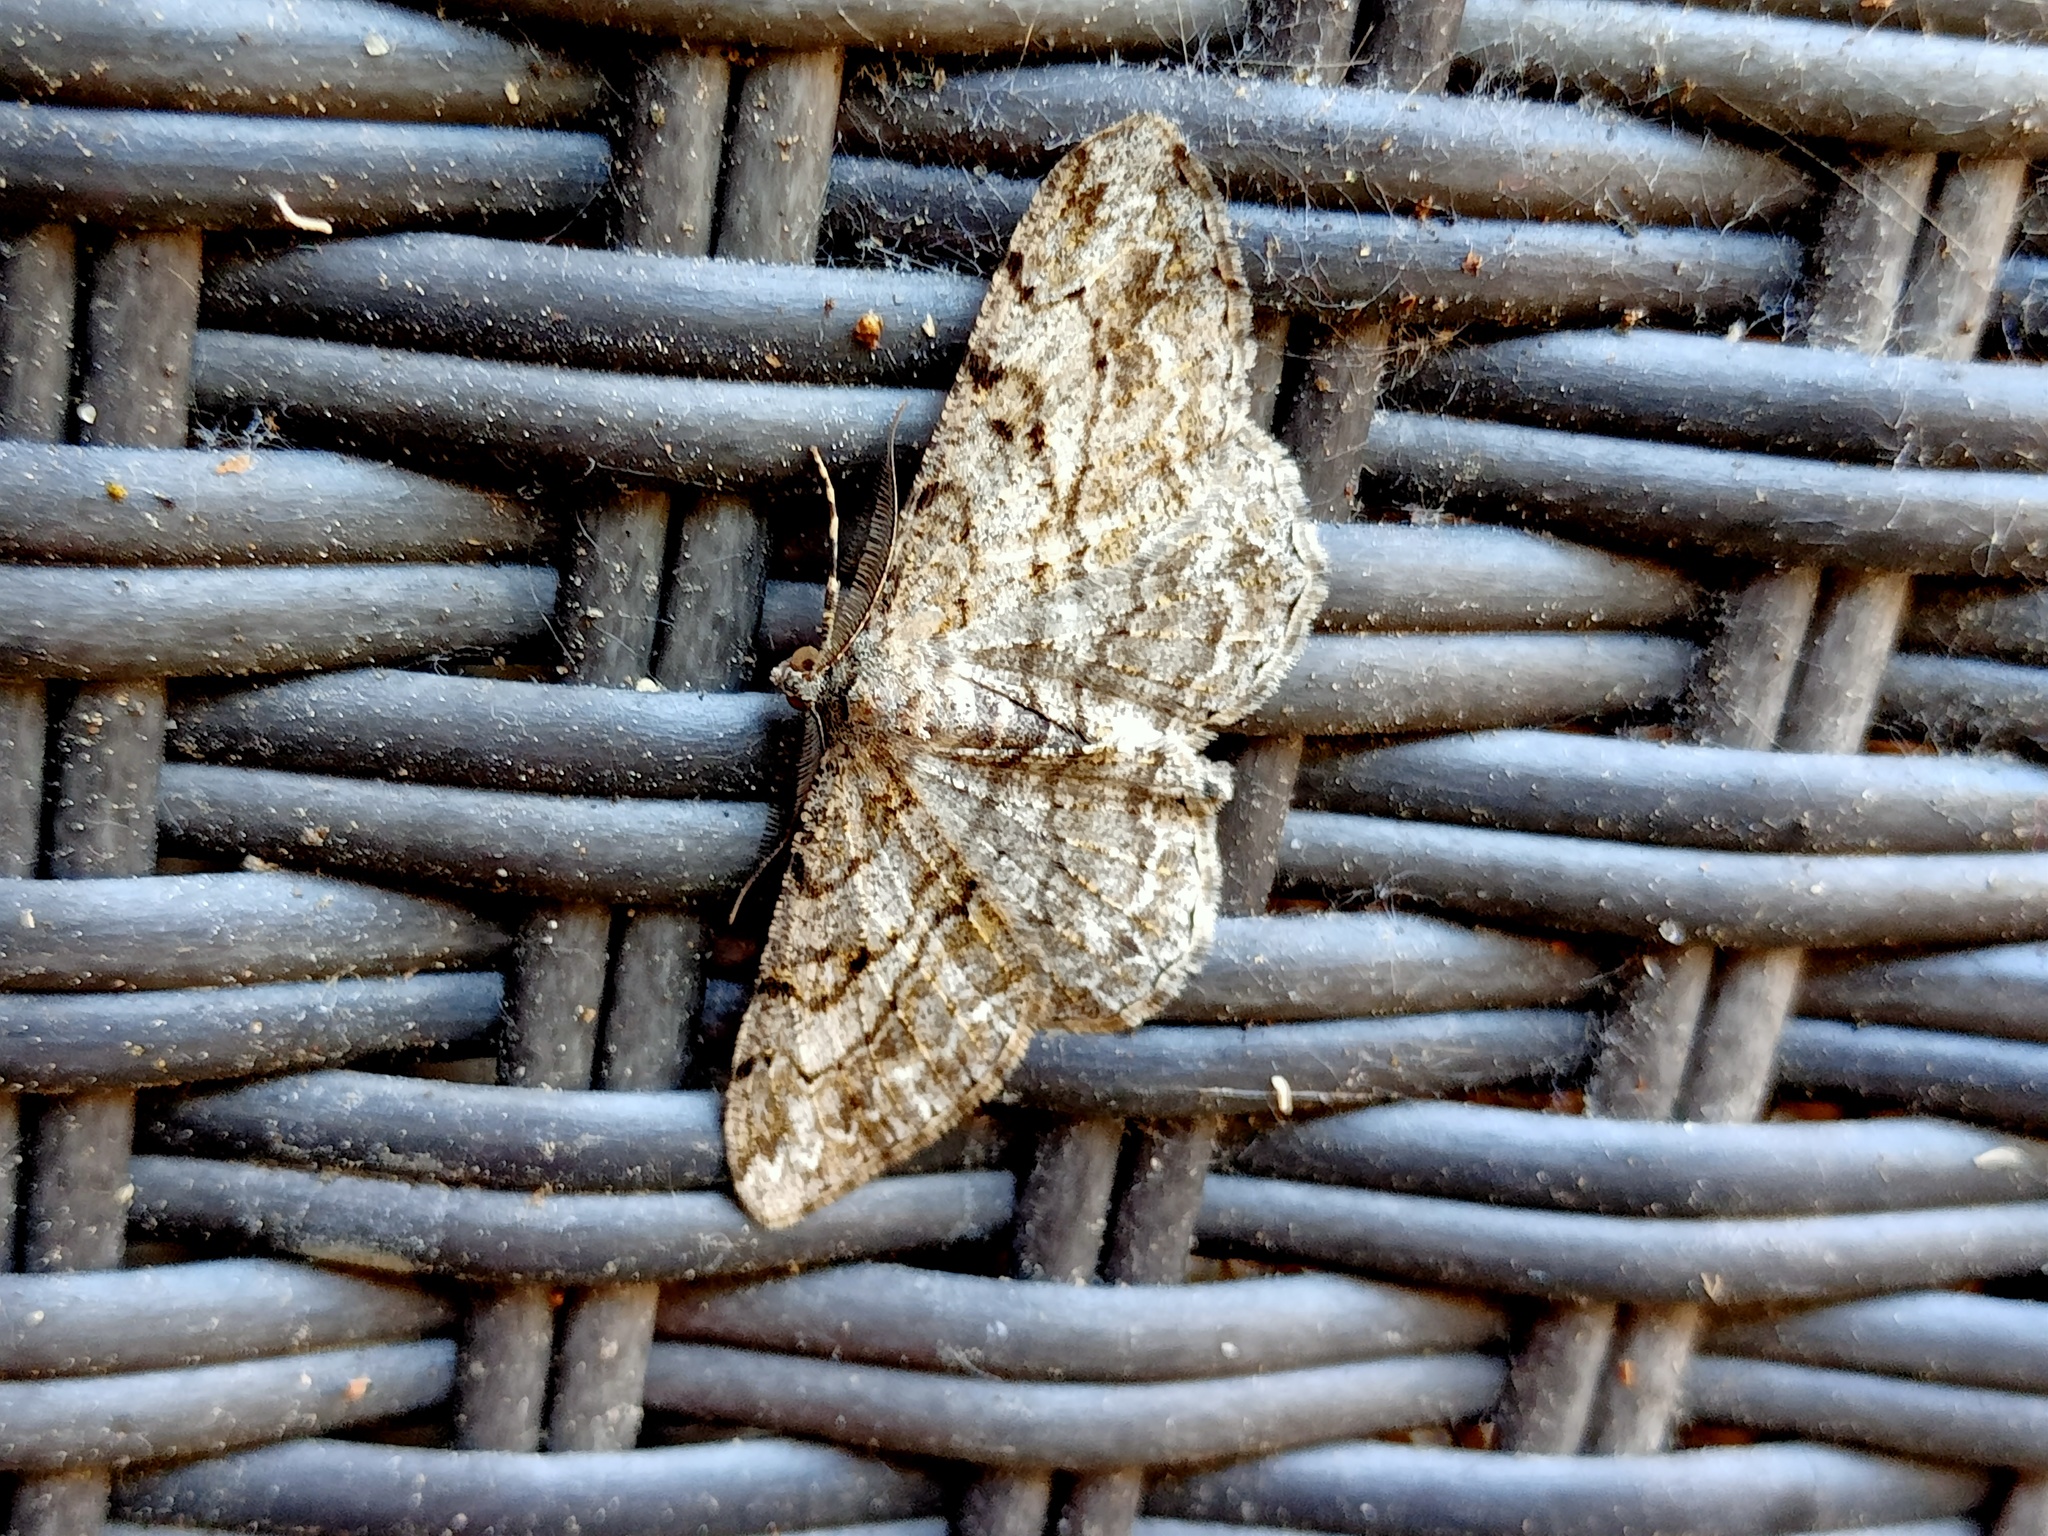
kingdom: Animalia
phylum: Arthropoda
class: Insecta
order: Lepidoptera
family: Geometridae
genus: Peribatodes
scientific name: Peribatodes rhomboidaria
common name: Willow beauty
